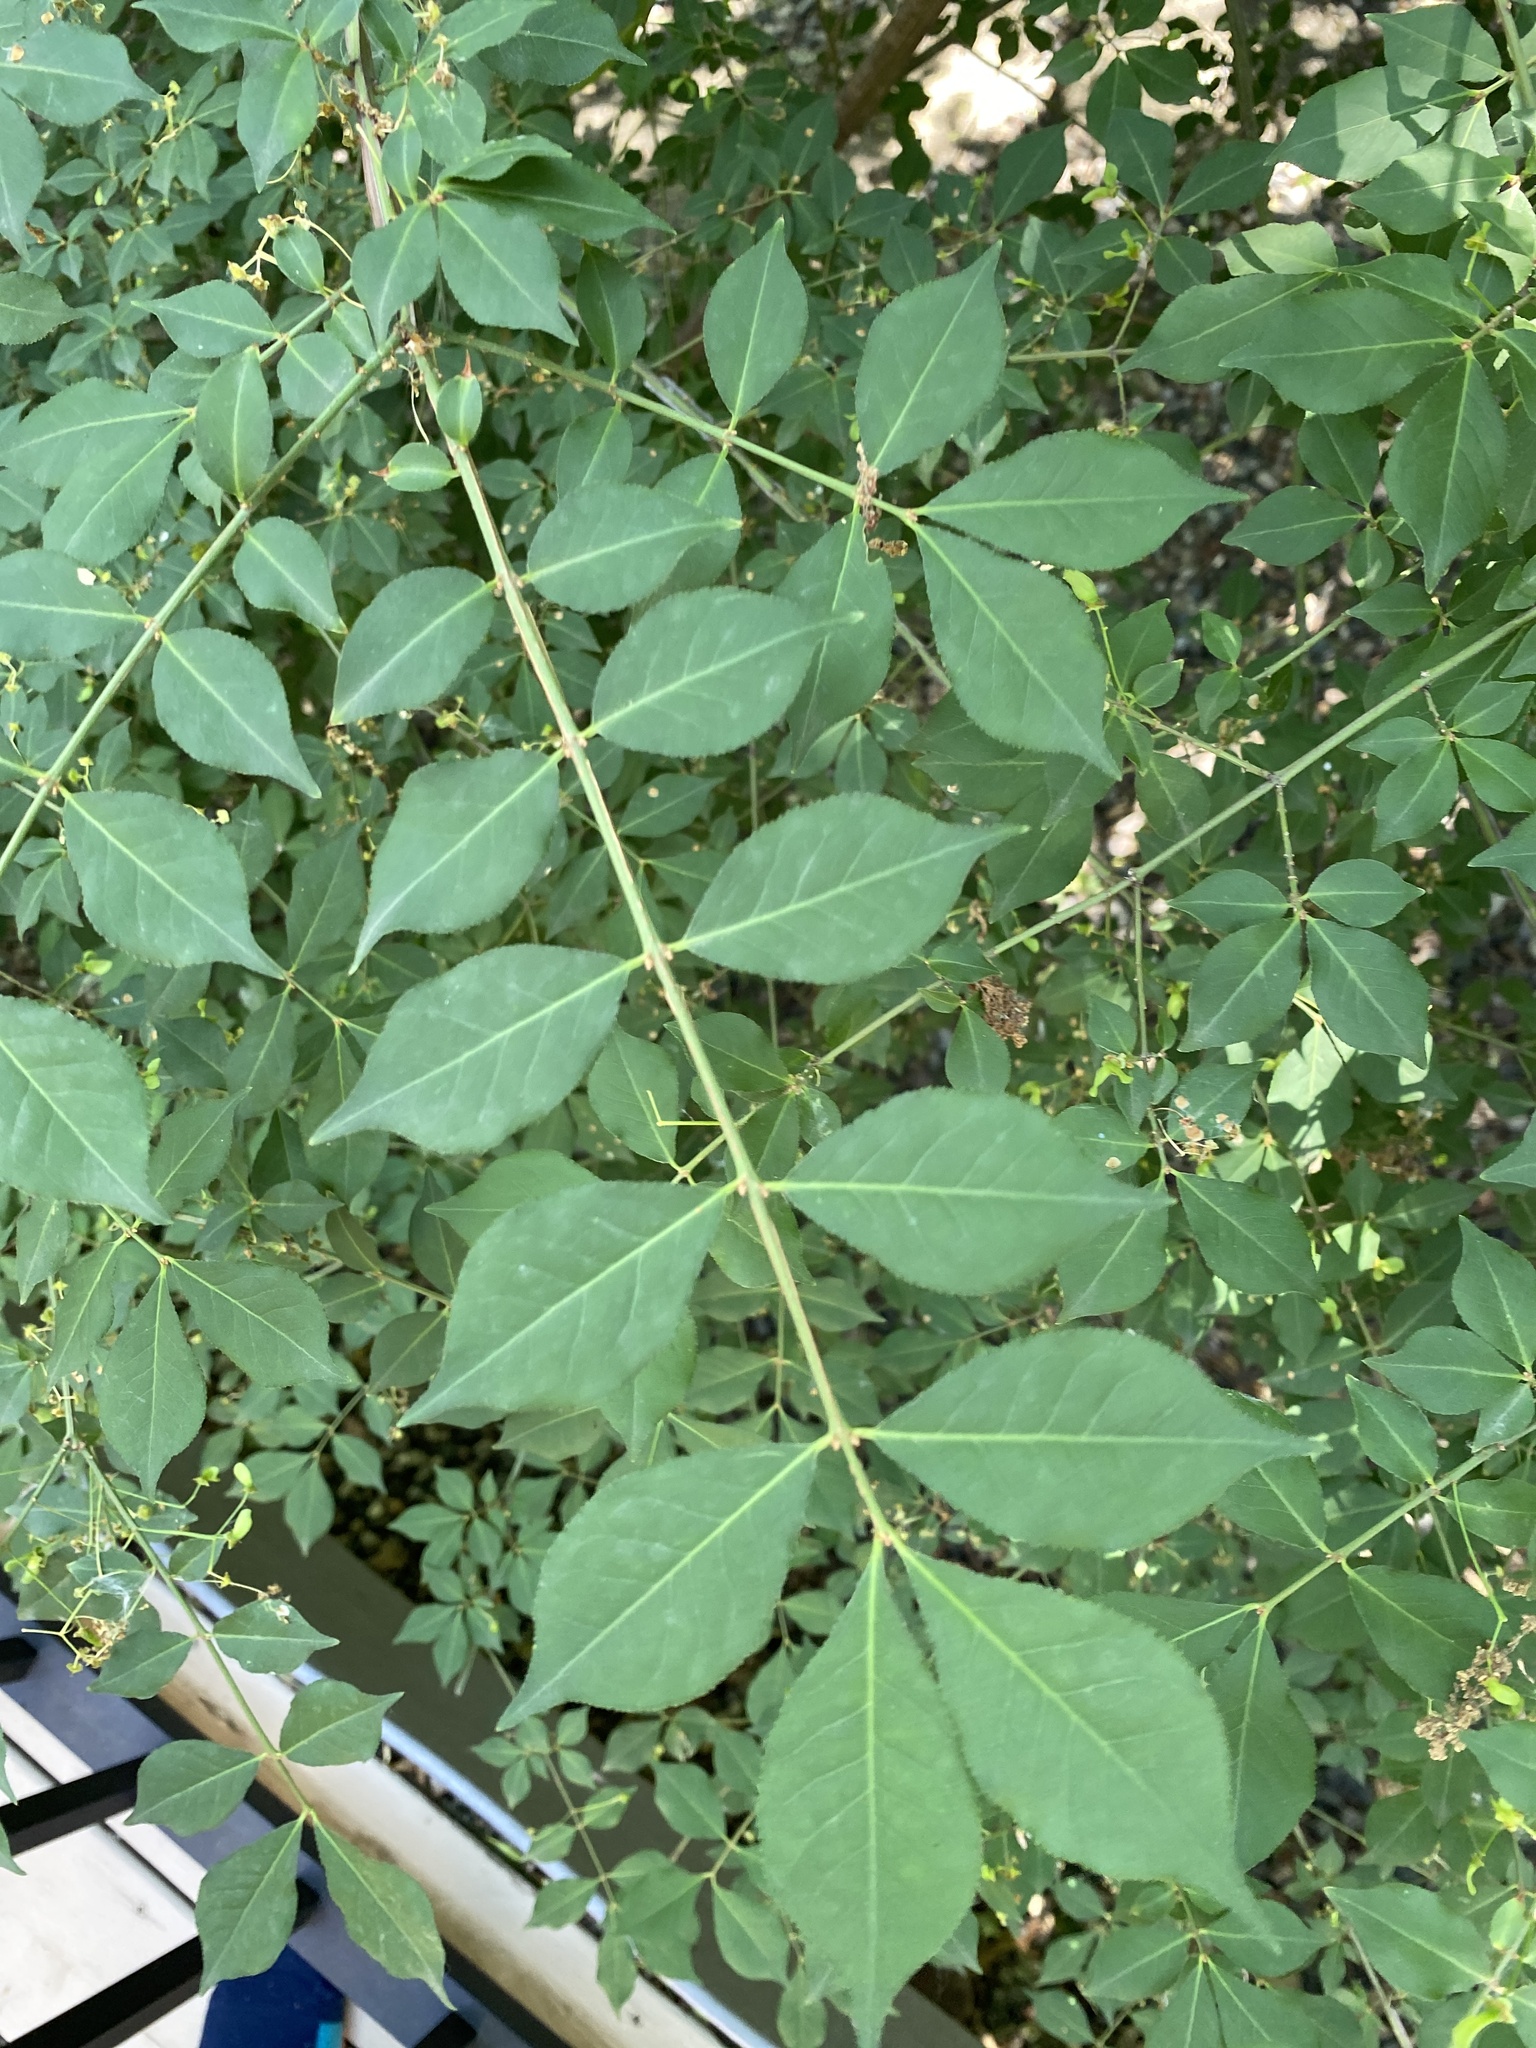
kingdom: Plantae
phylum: Tracheophyta
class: Magnoliopsida
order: Celastrales
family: Celastraceae
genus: Euonymus
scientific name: Euonymus alatus
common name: Winged euonymus
